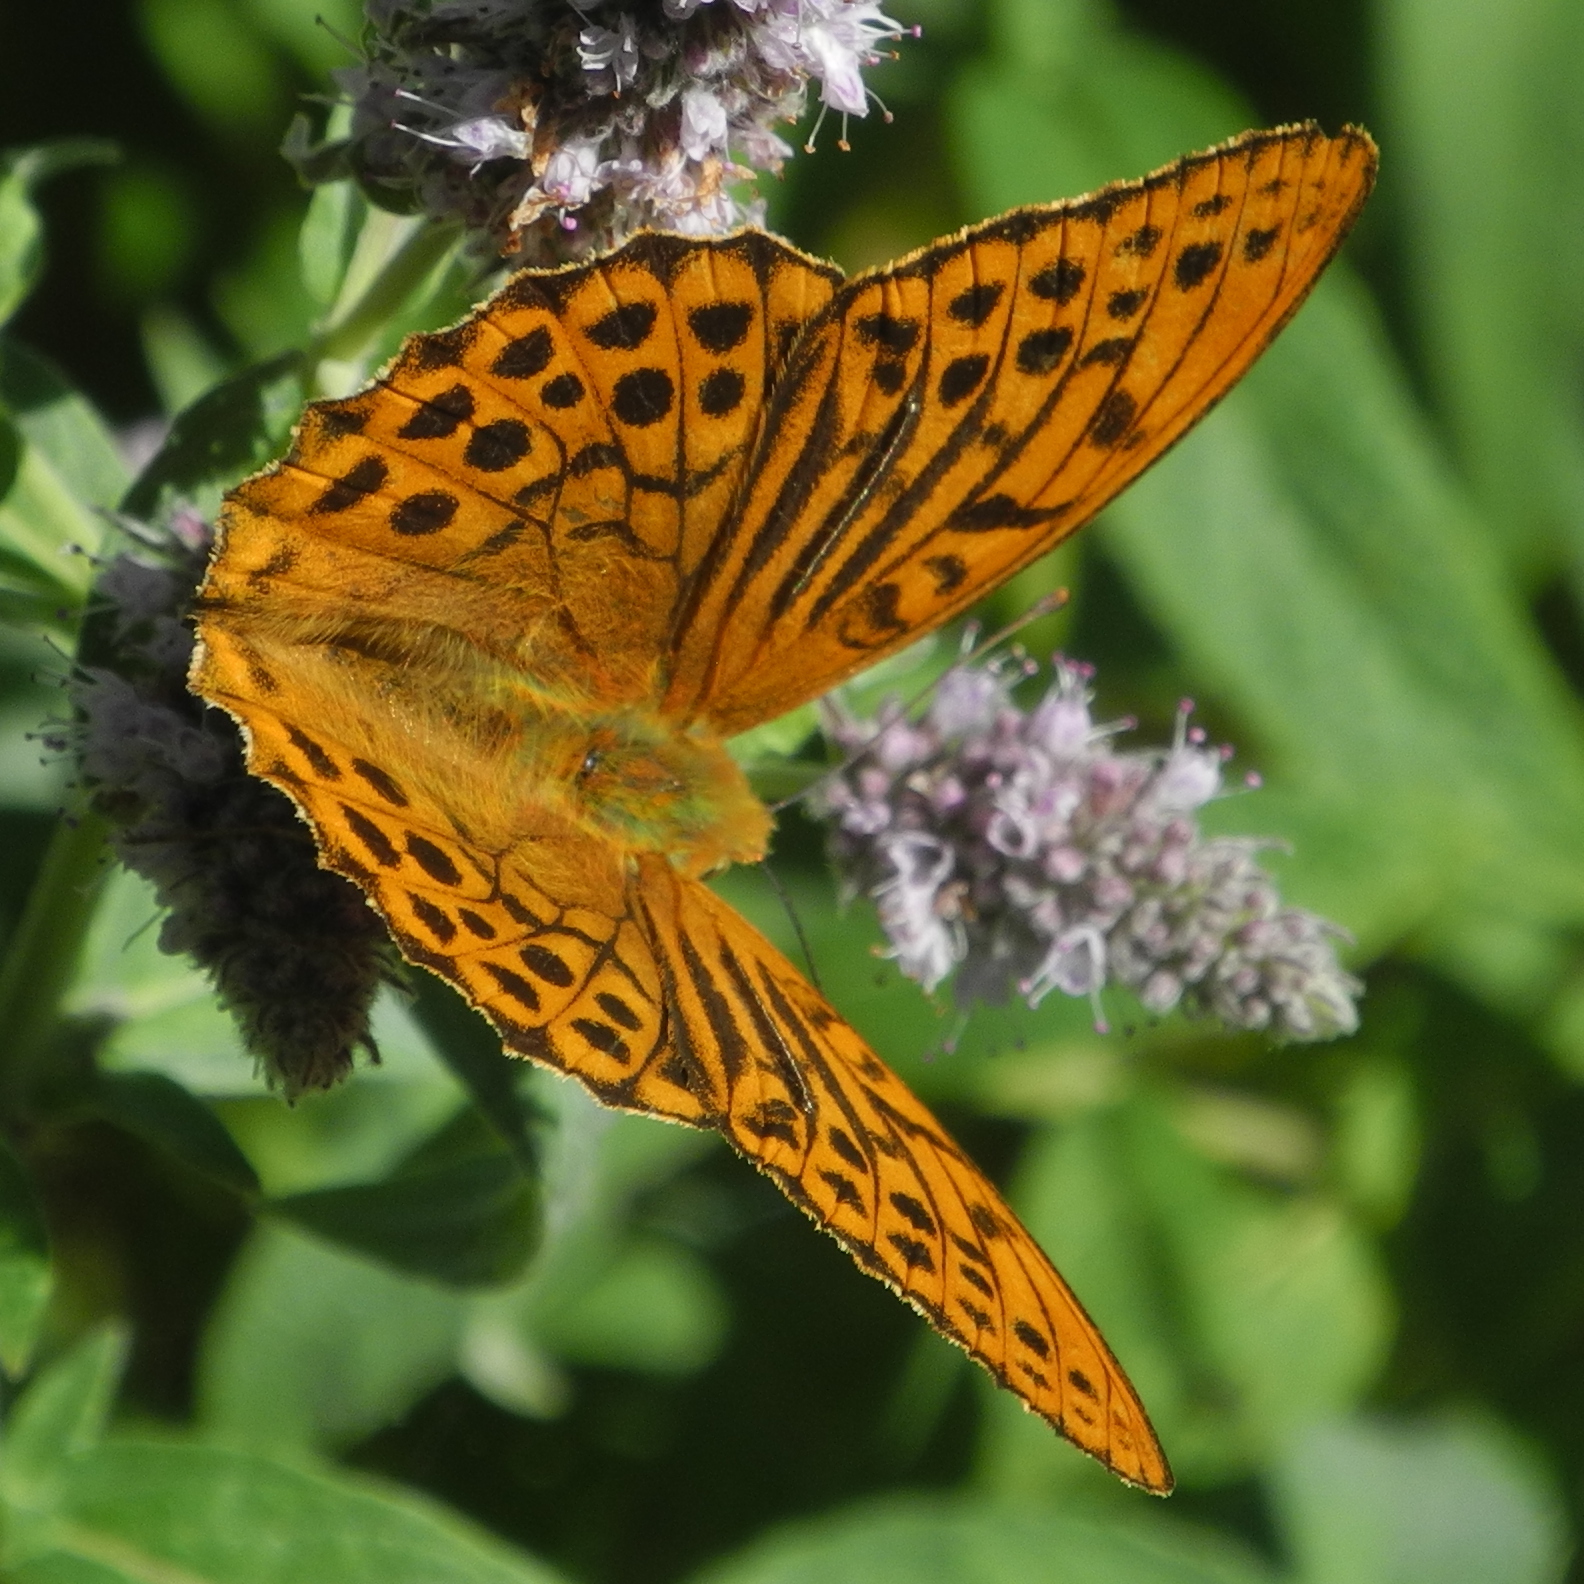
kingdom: Animalia
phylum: Arthropoda
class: Insecta
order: Lepidoptera
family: Nymphalidae
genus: Argynnis
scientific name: Argynnis paphia
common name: Silver-washed fritillary
